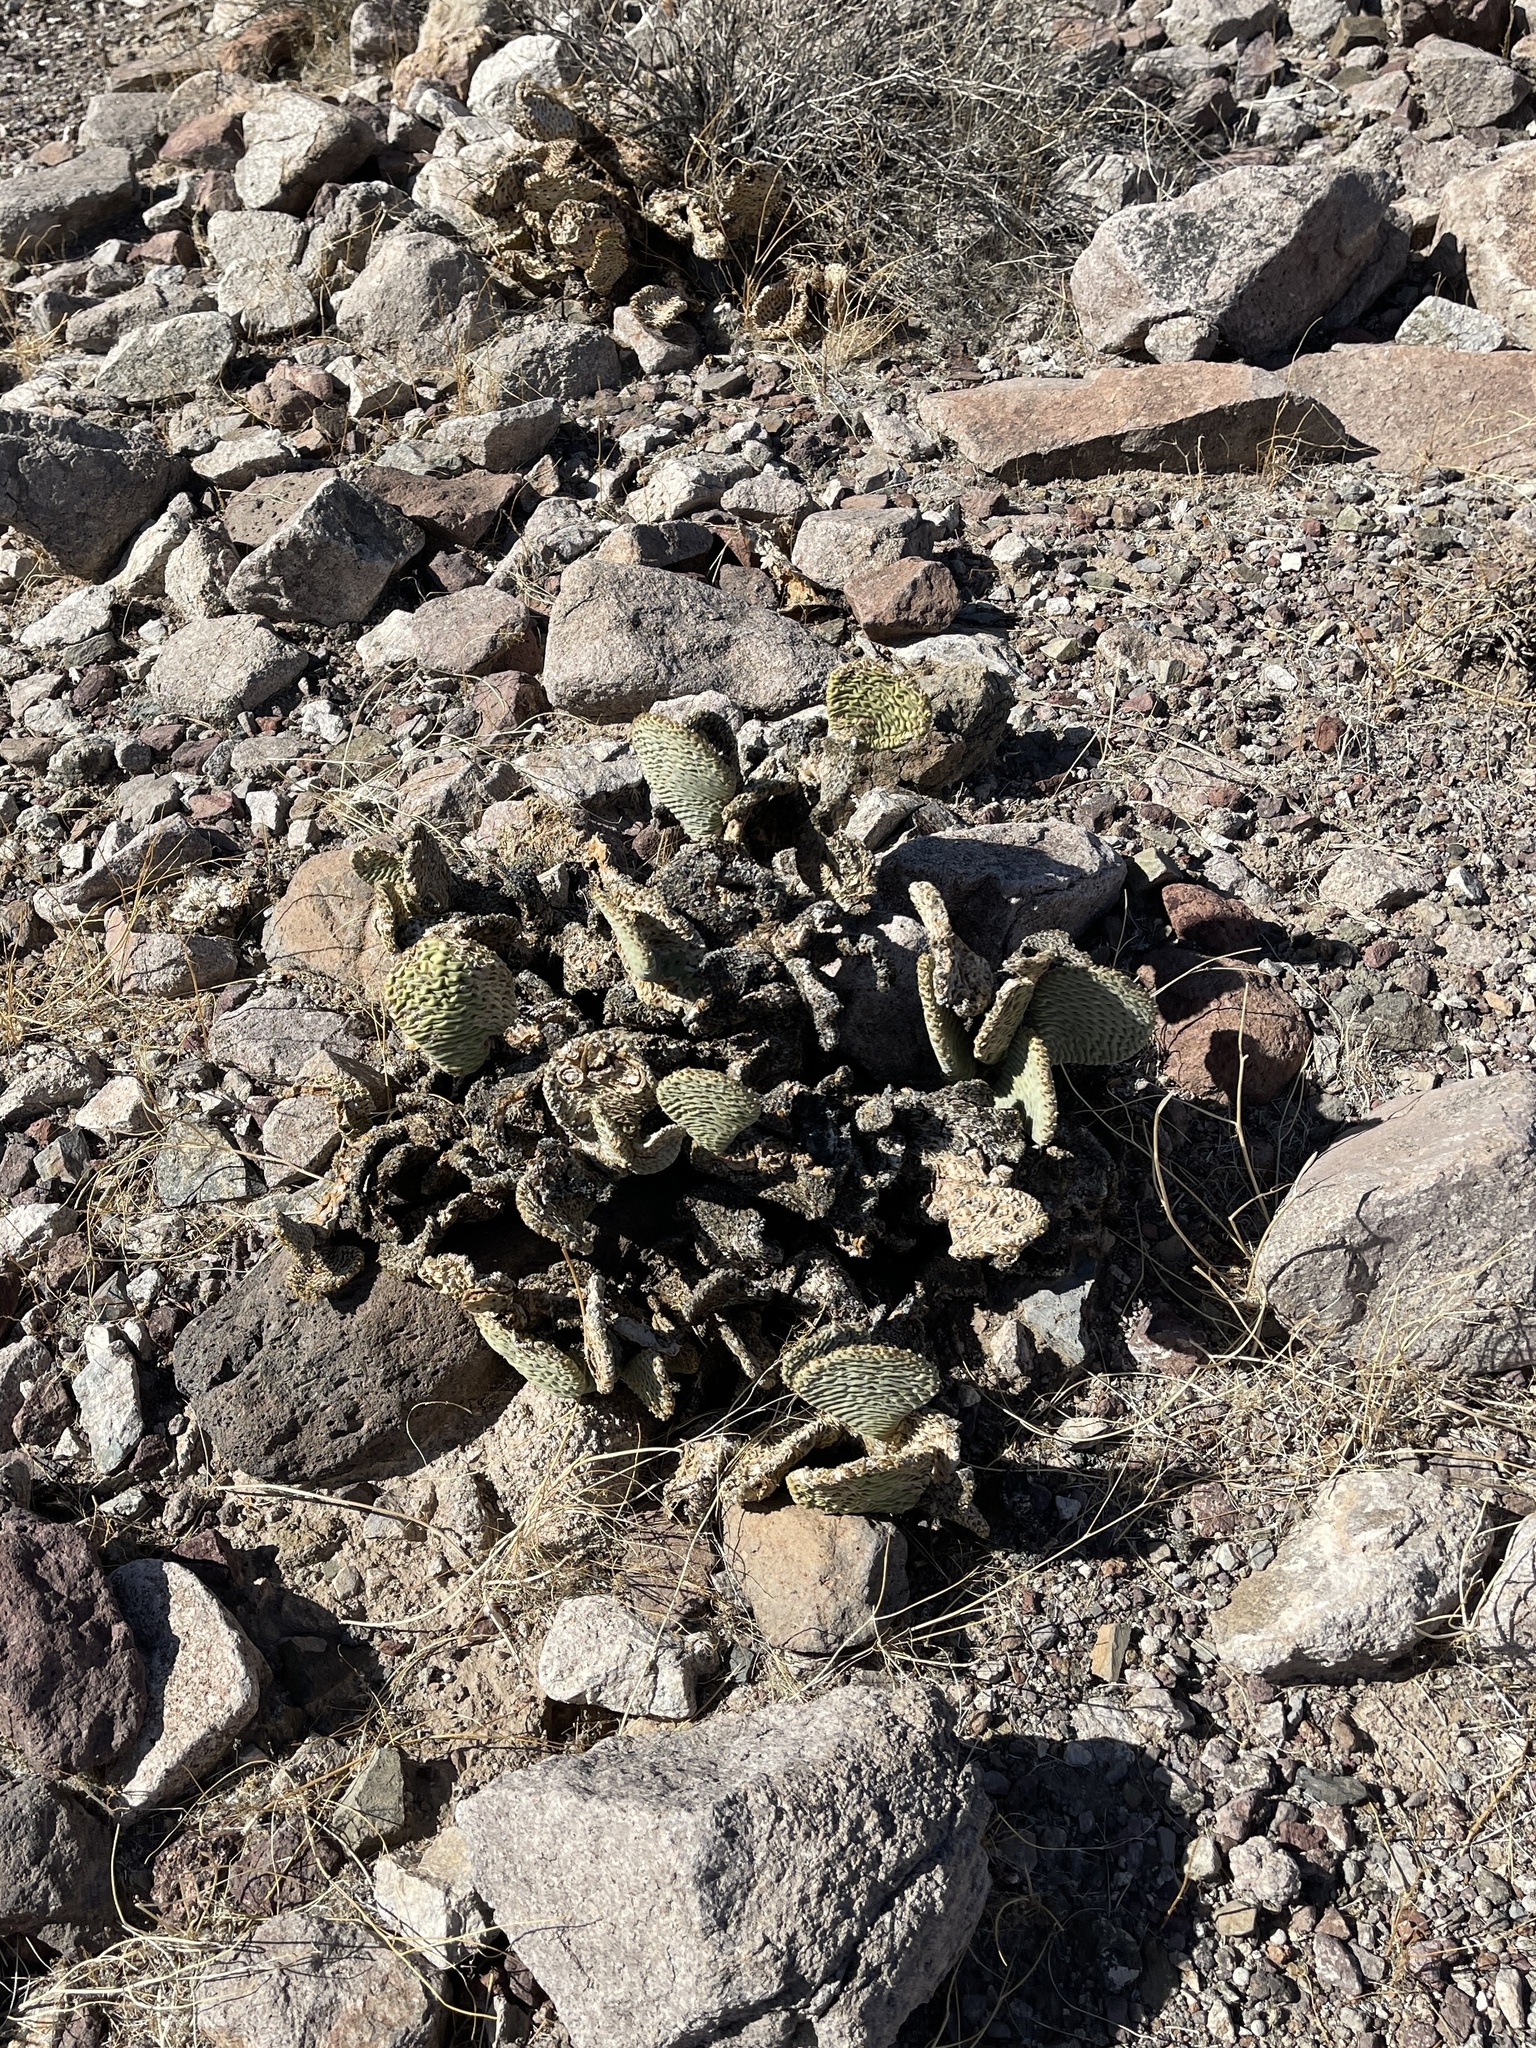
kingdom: Plantae
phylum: Tracheophyta
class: Magnoliopsida
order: Caryophyllales
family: Cactaceae
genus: Opuntia
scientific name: Opuntia basilaris
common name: Beavertail prickly-pear
